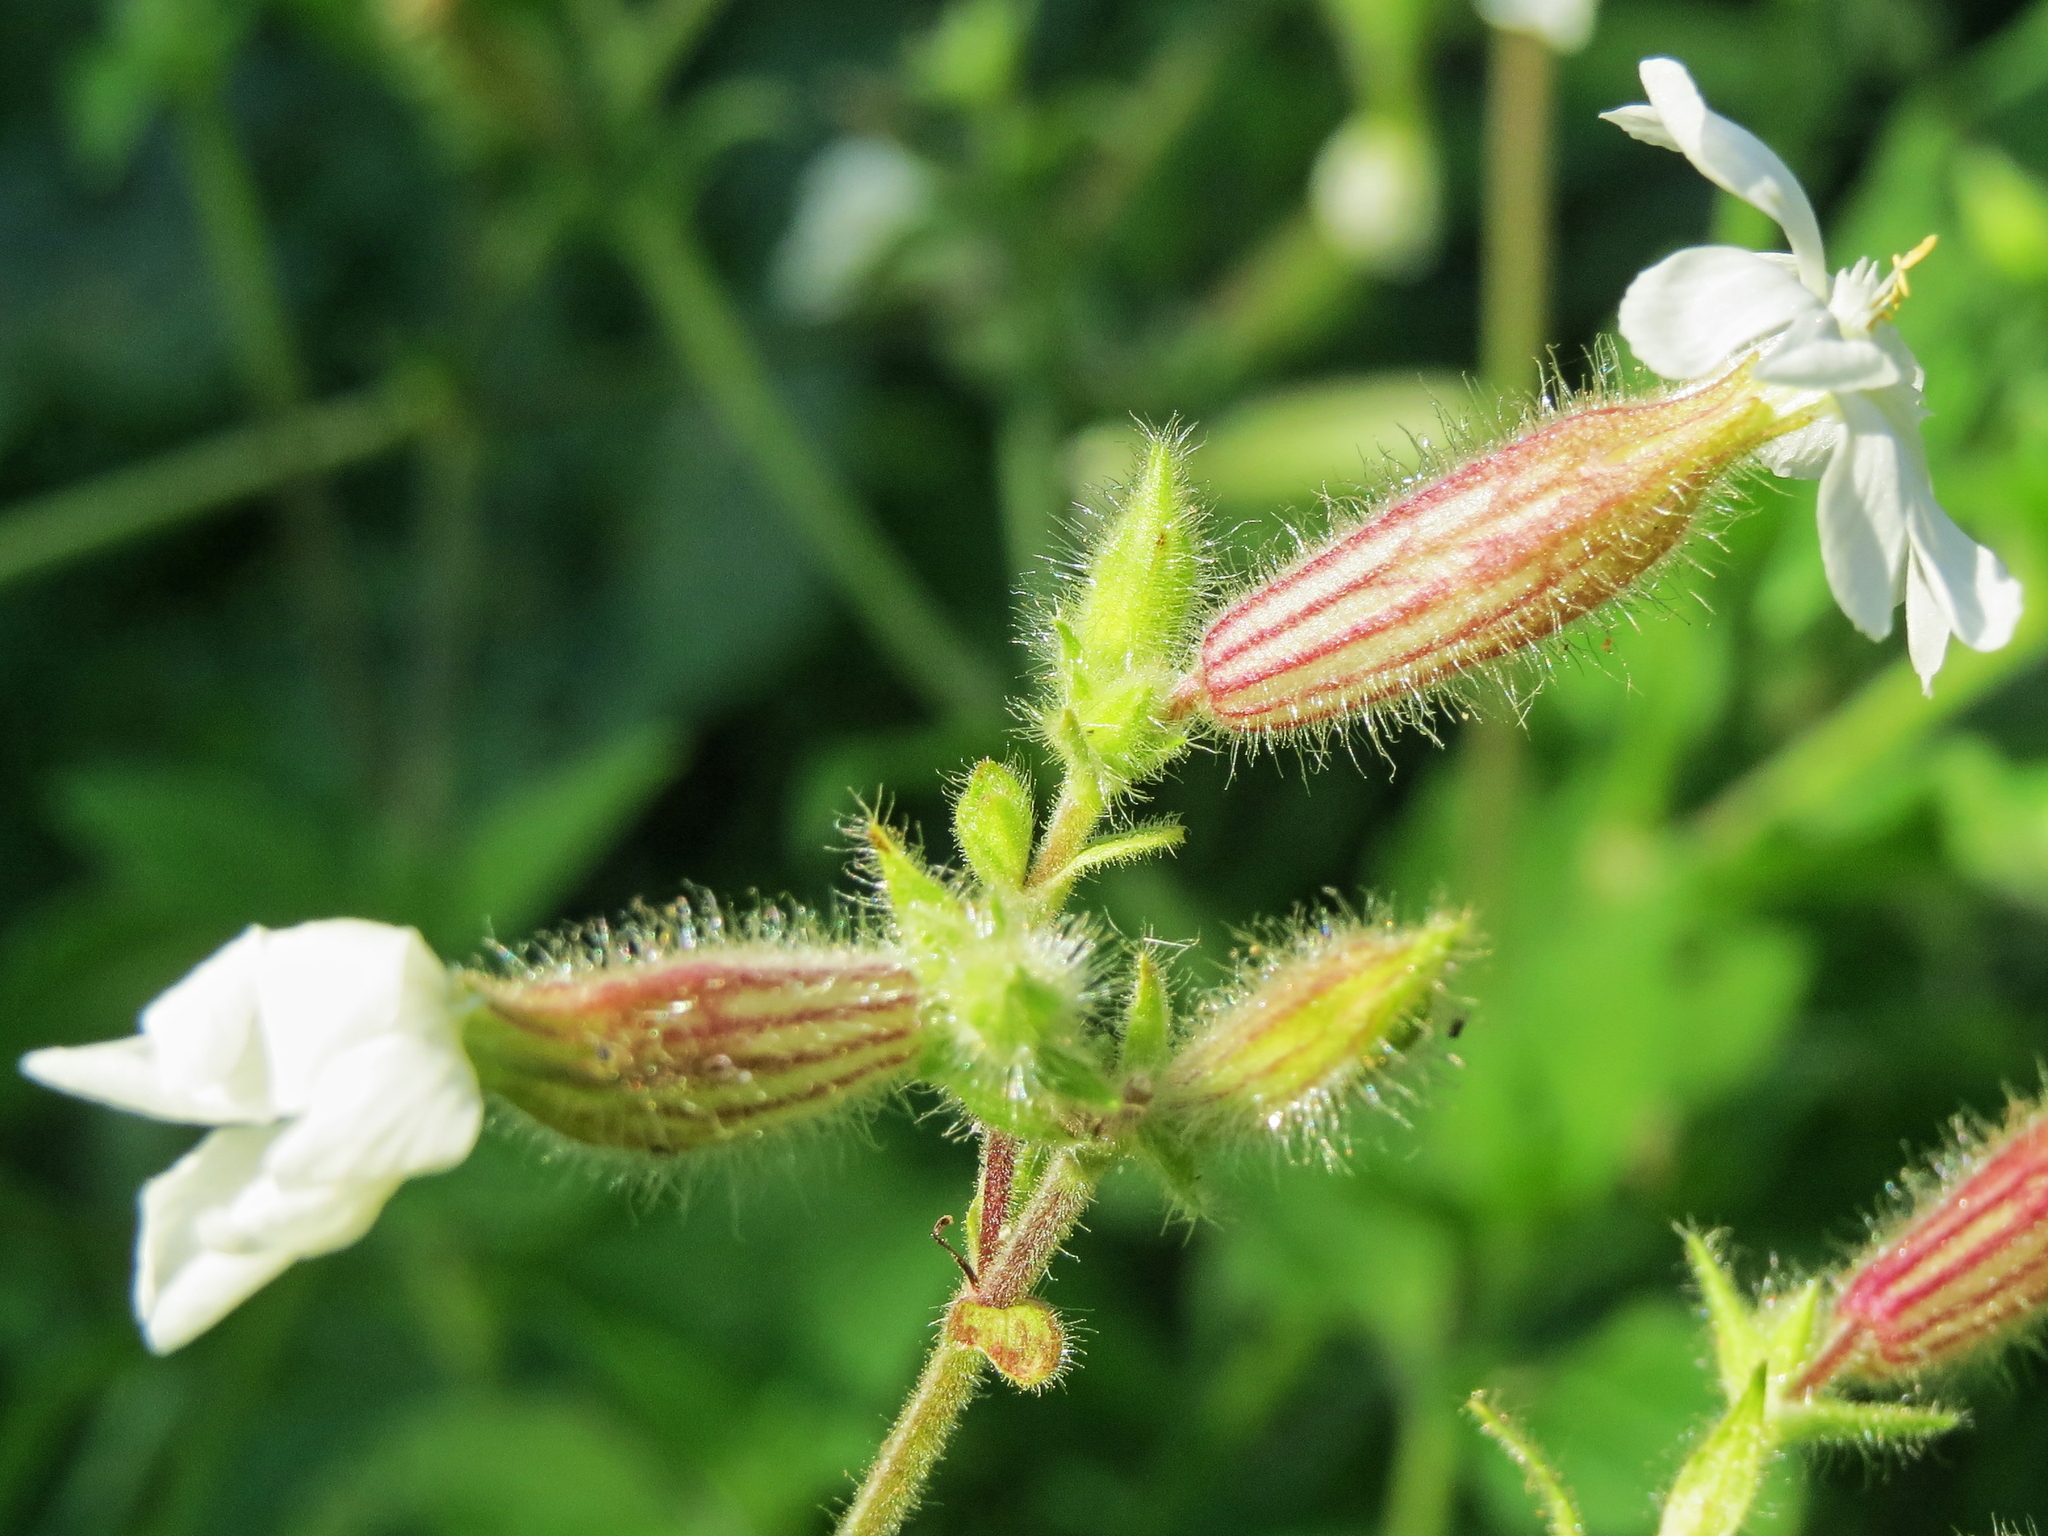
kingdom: Plantae
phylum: Tracheophyta
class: Magnoliopsida
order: Caryophyllales
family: Caryophyllaceae
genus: Silene
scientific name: Silene latifolia
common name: White campion
